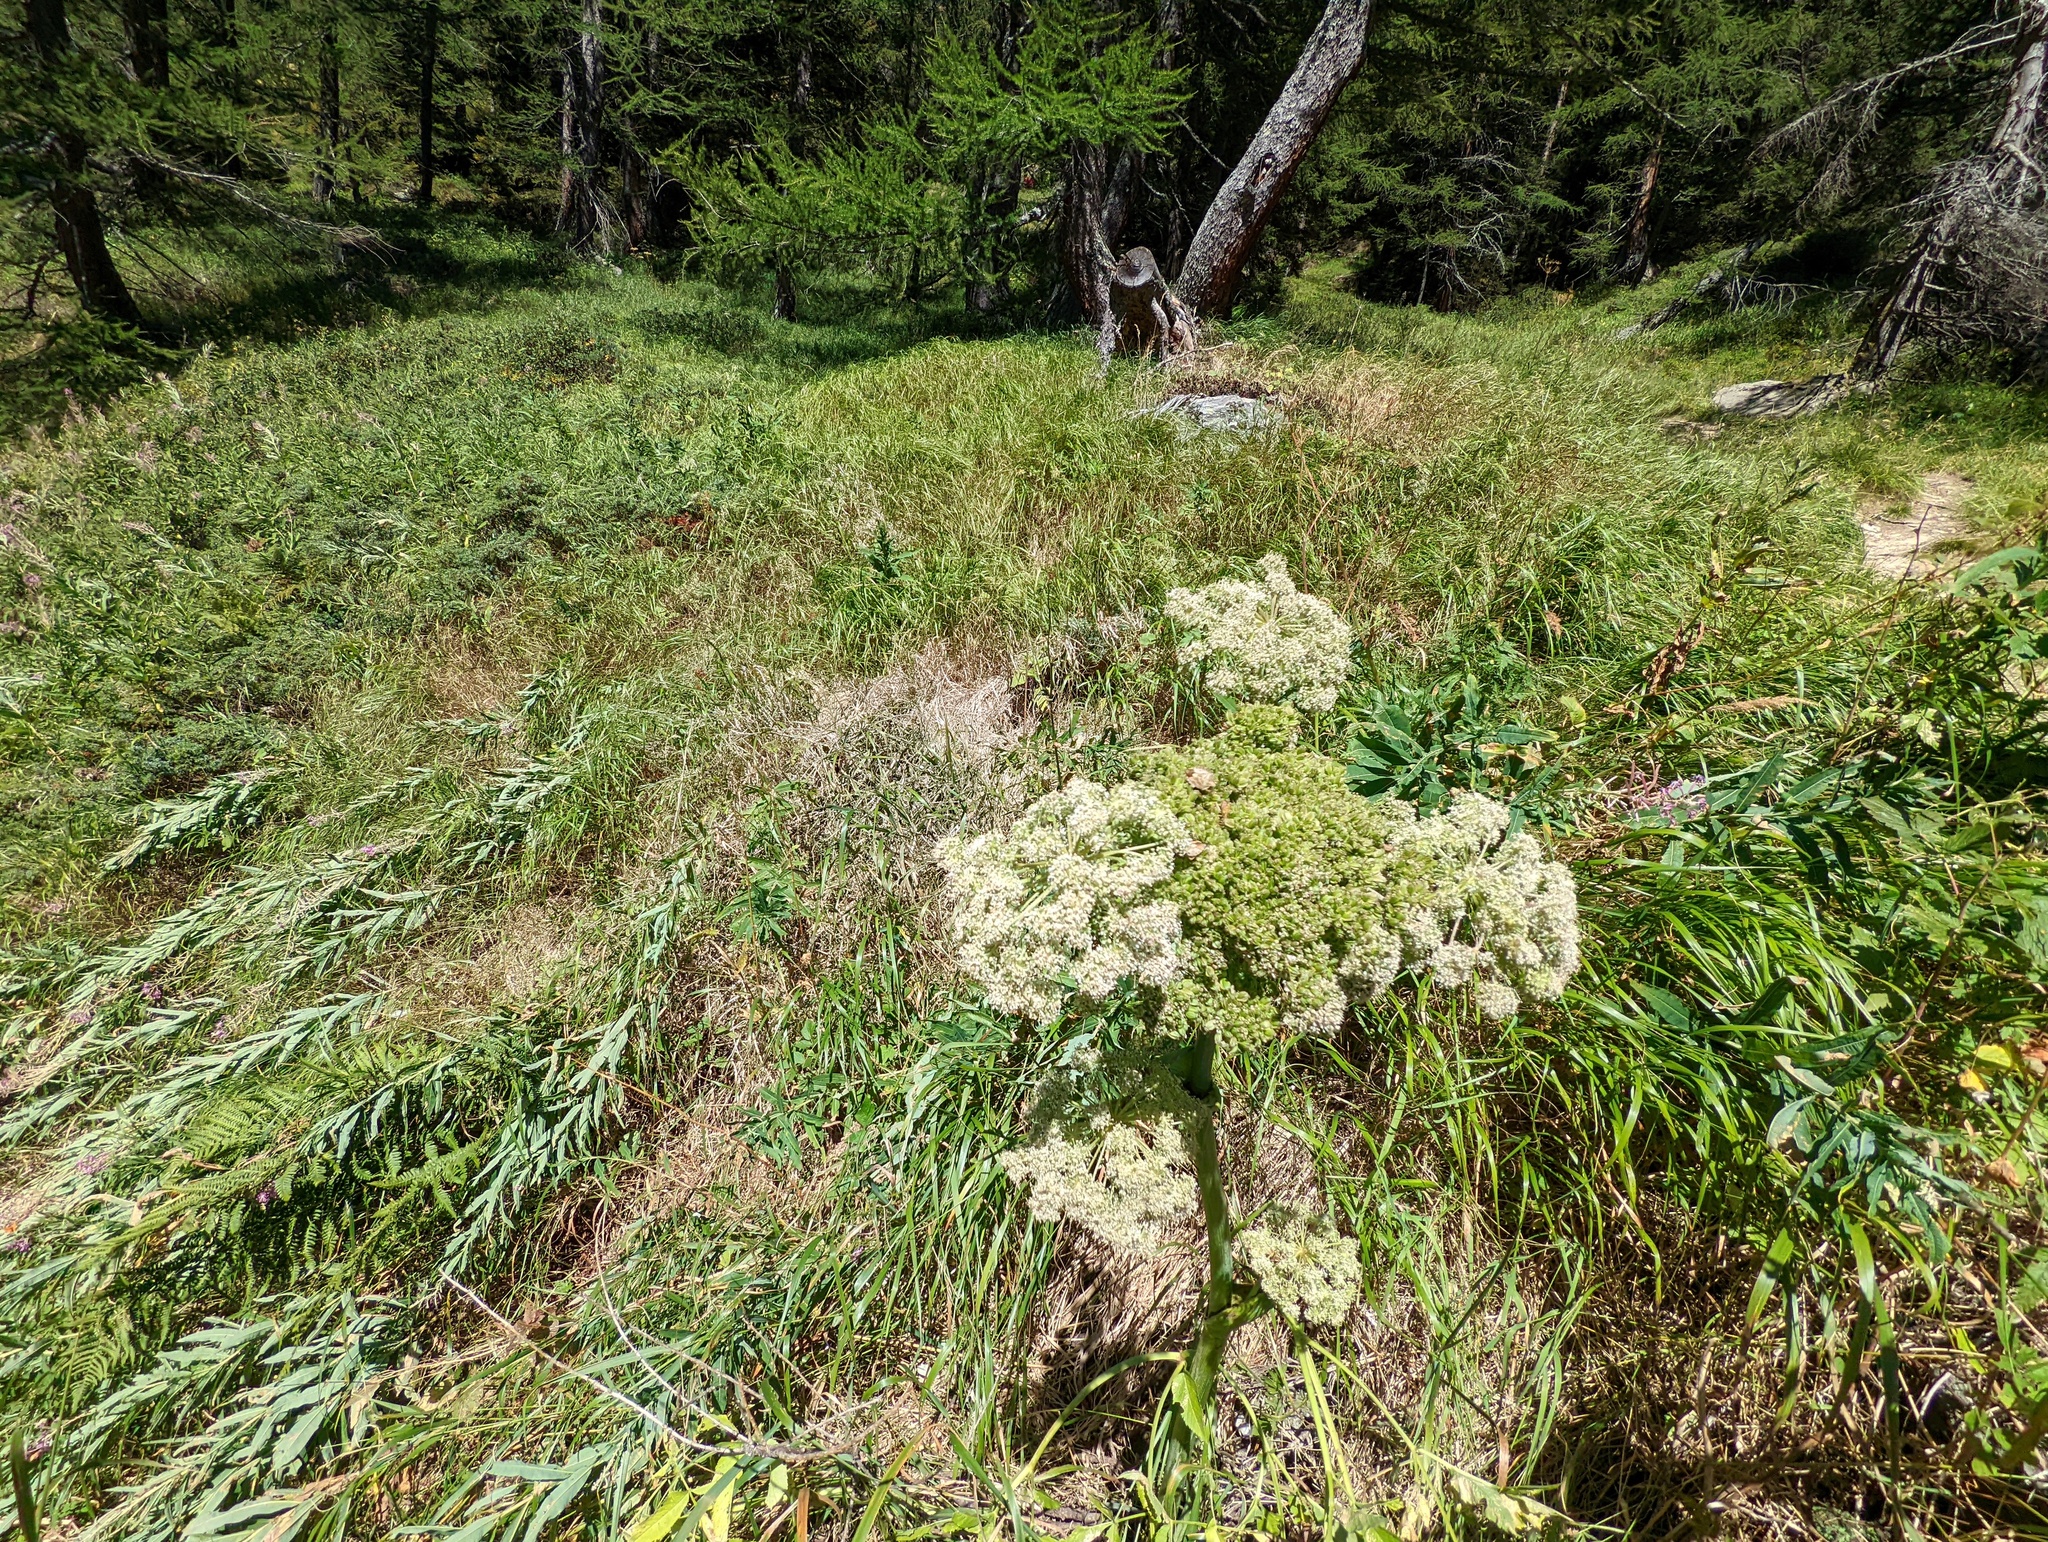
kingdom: Animalia
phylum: Arthropoda
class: Insecta
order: Hemiptera
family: Pentatomidae
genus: Carpocoris
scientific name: Carpocoris melanocerus
